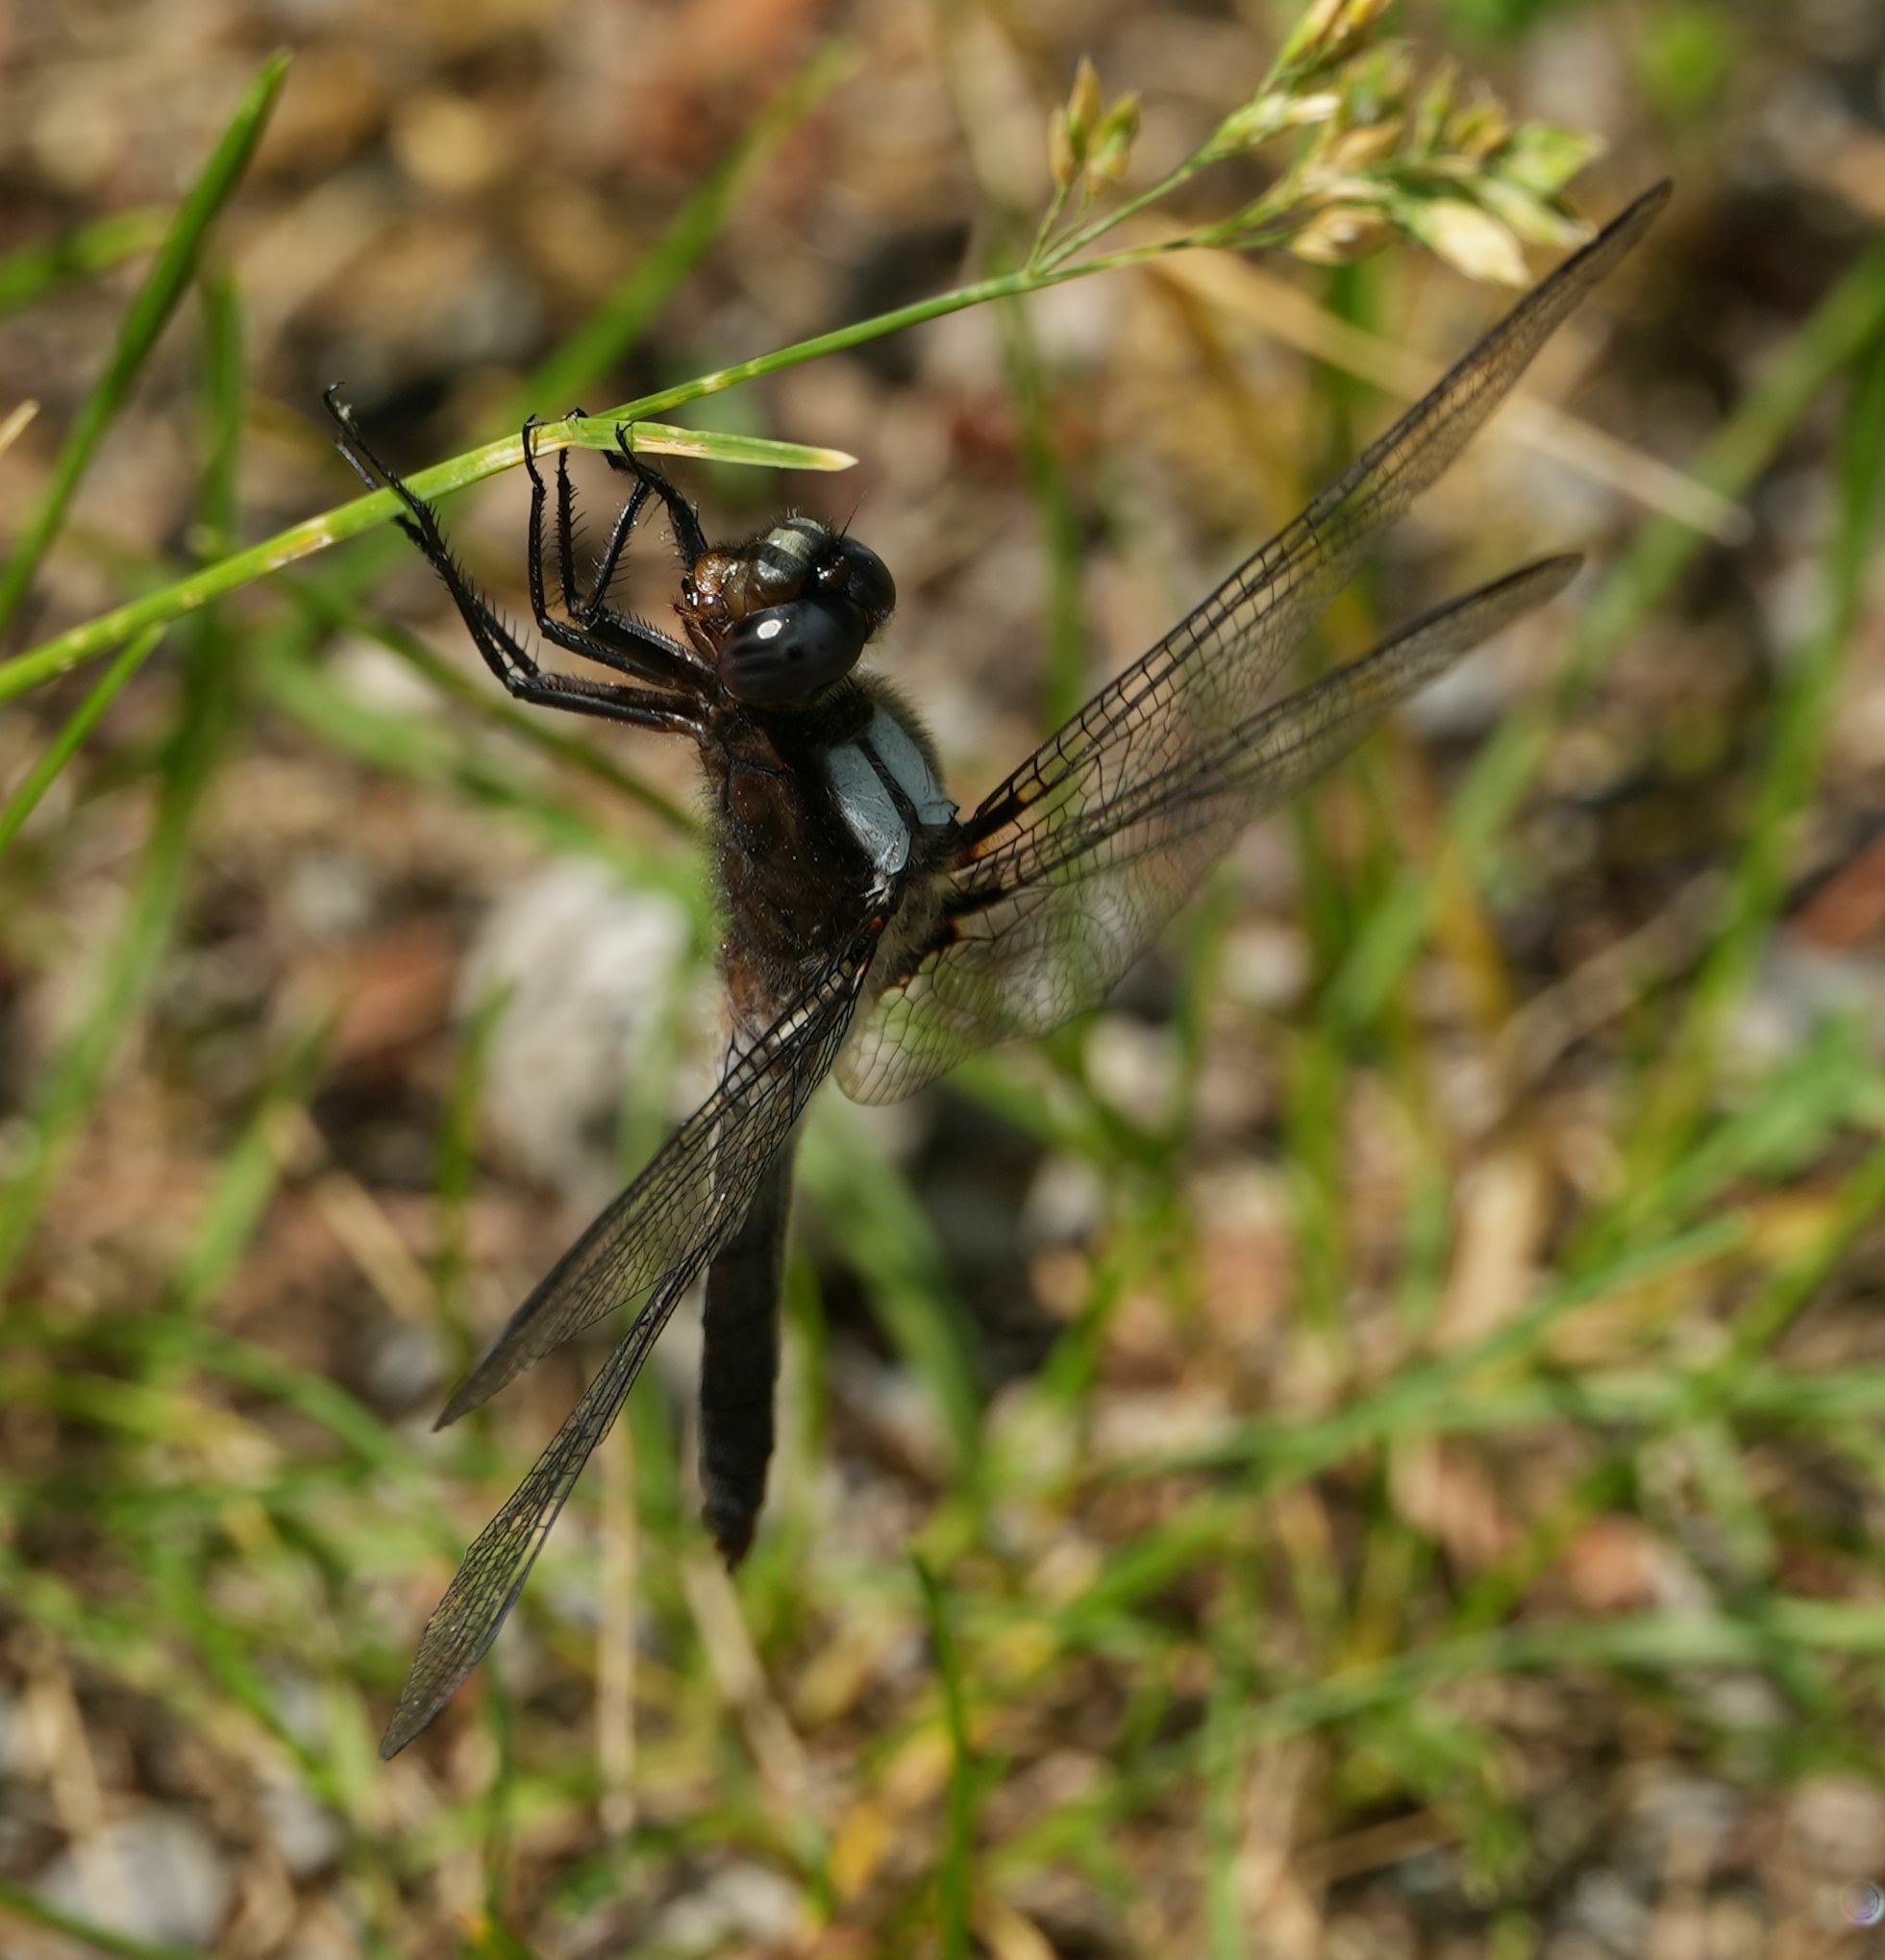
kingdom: Animalia
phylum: Arthropoda
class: Insecta
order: Odonata
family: Libellulidae
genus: Ladona
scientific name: Ladona julia
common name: Chalk-fronted corporal
